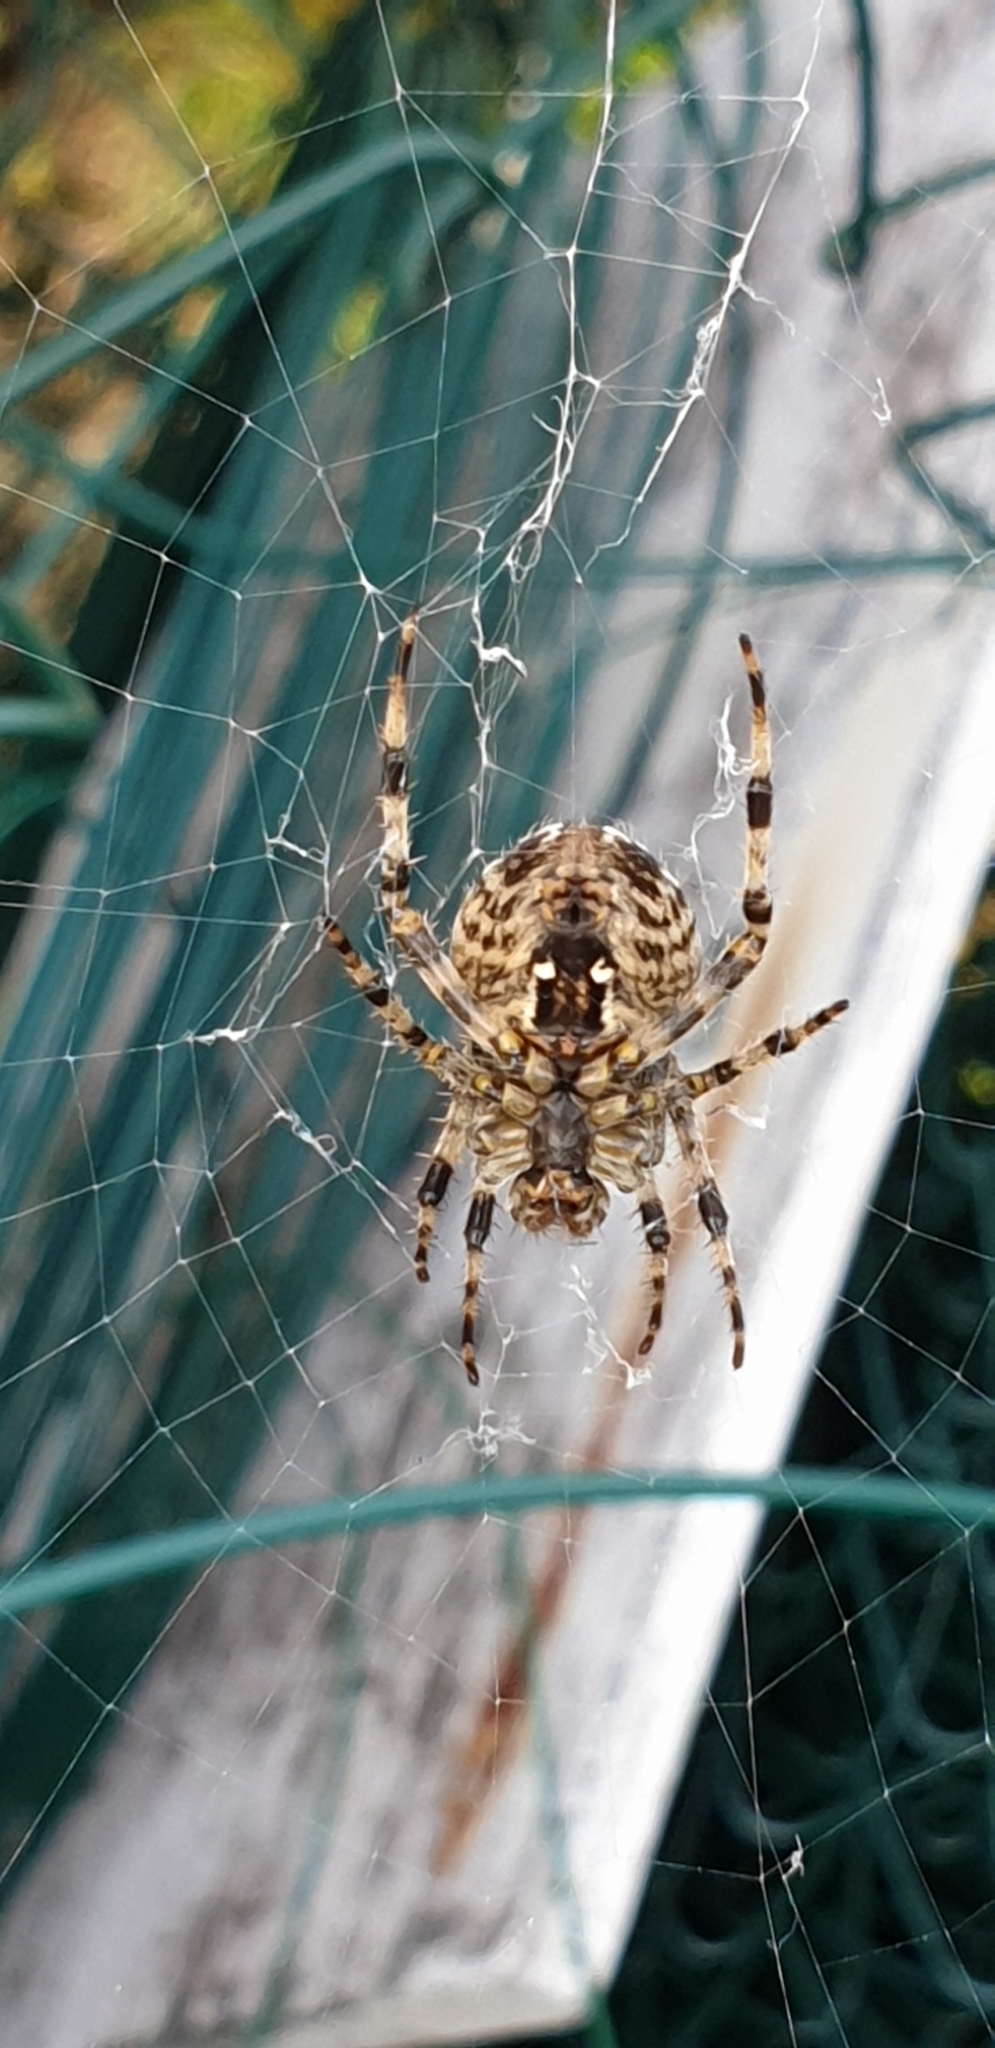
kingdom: Animalia
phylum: Arthropoda
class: Arachnida
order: Araneae
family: Araneidae
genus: Araneus
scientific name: Araneus diadematus
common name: Cross orbweaver
